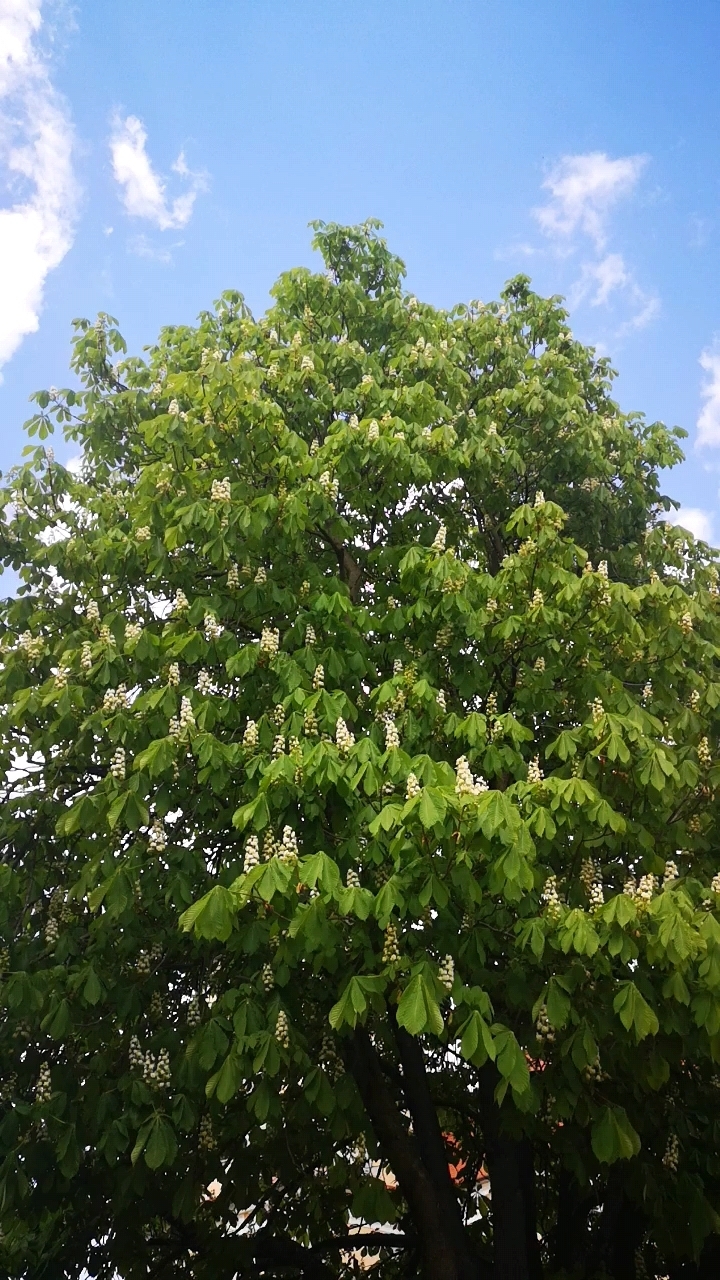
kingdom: Plantae
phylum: Tracheophyta
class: Magnoliopsida
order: Sapindales
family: Sapindaceae
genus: Aesculus
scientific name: Aesculus hippocastanum
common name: Horse-chestnut
